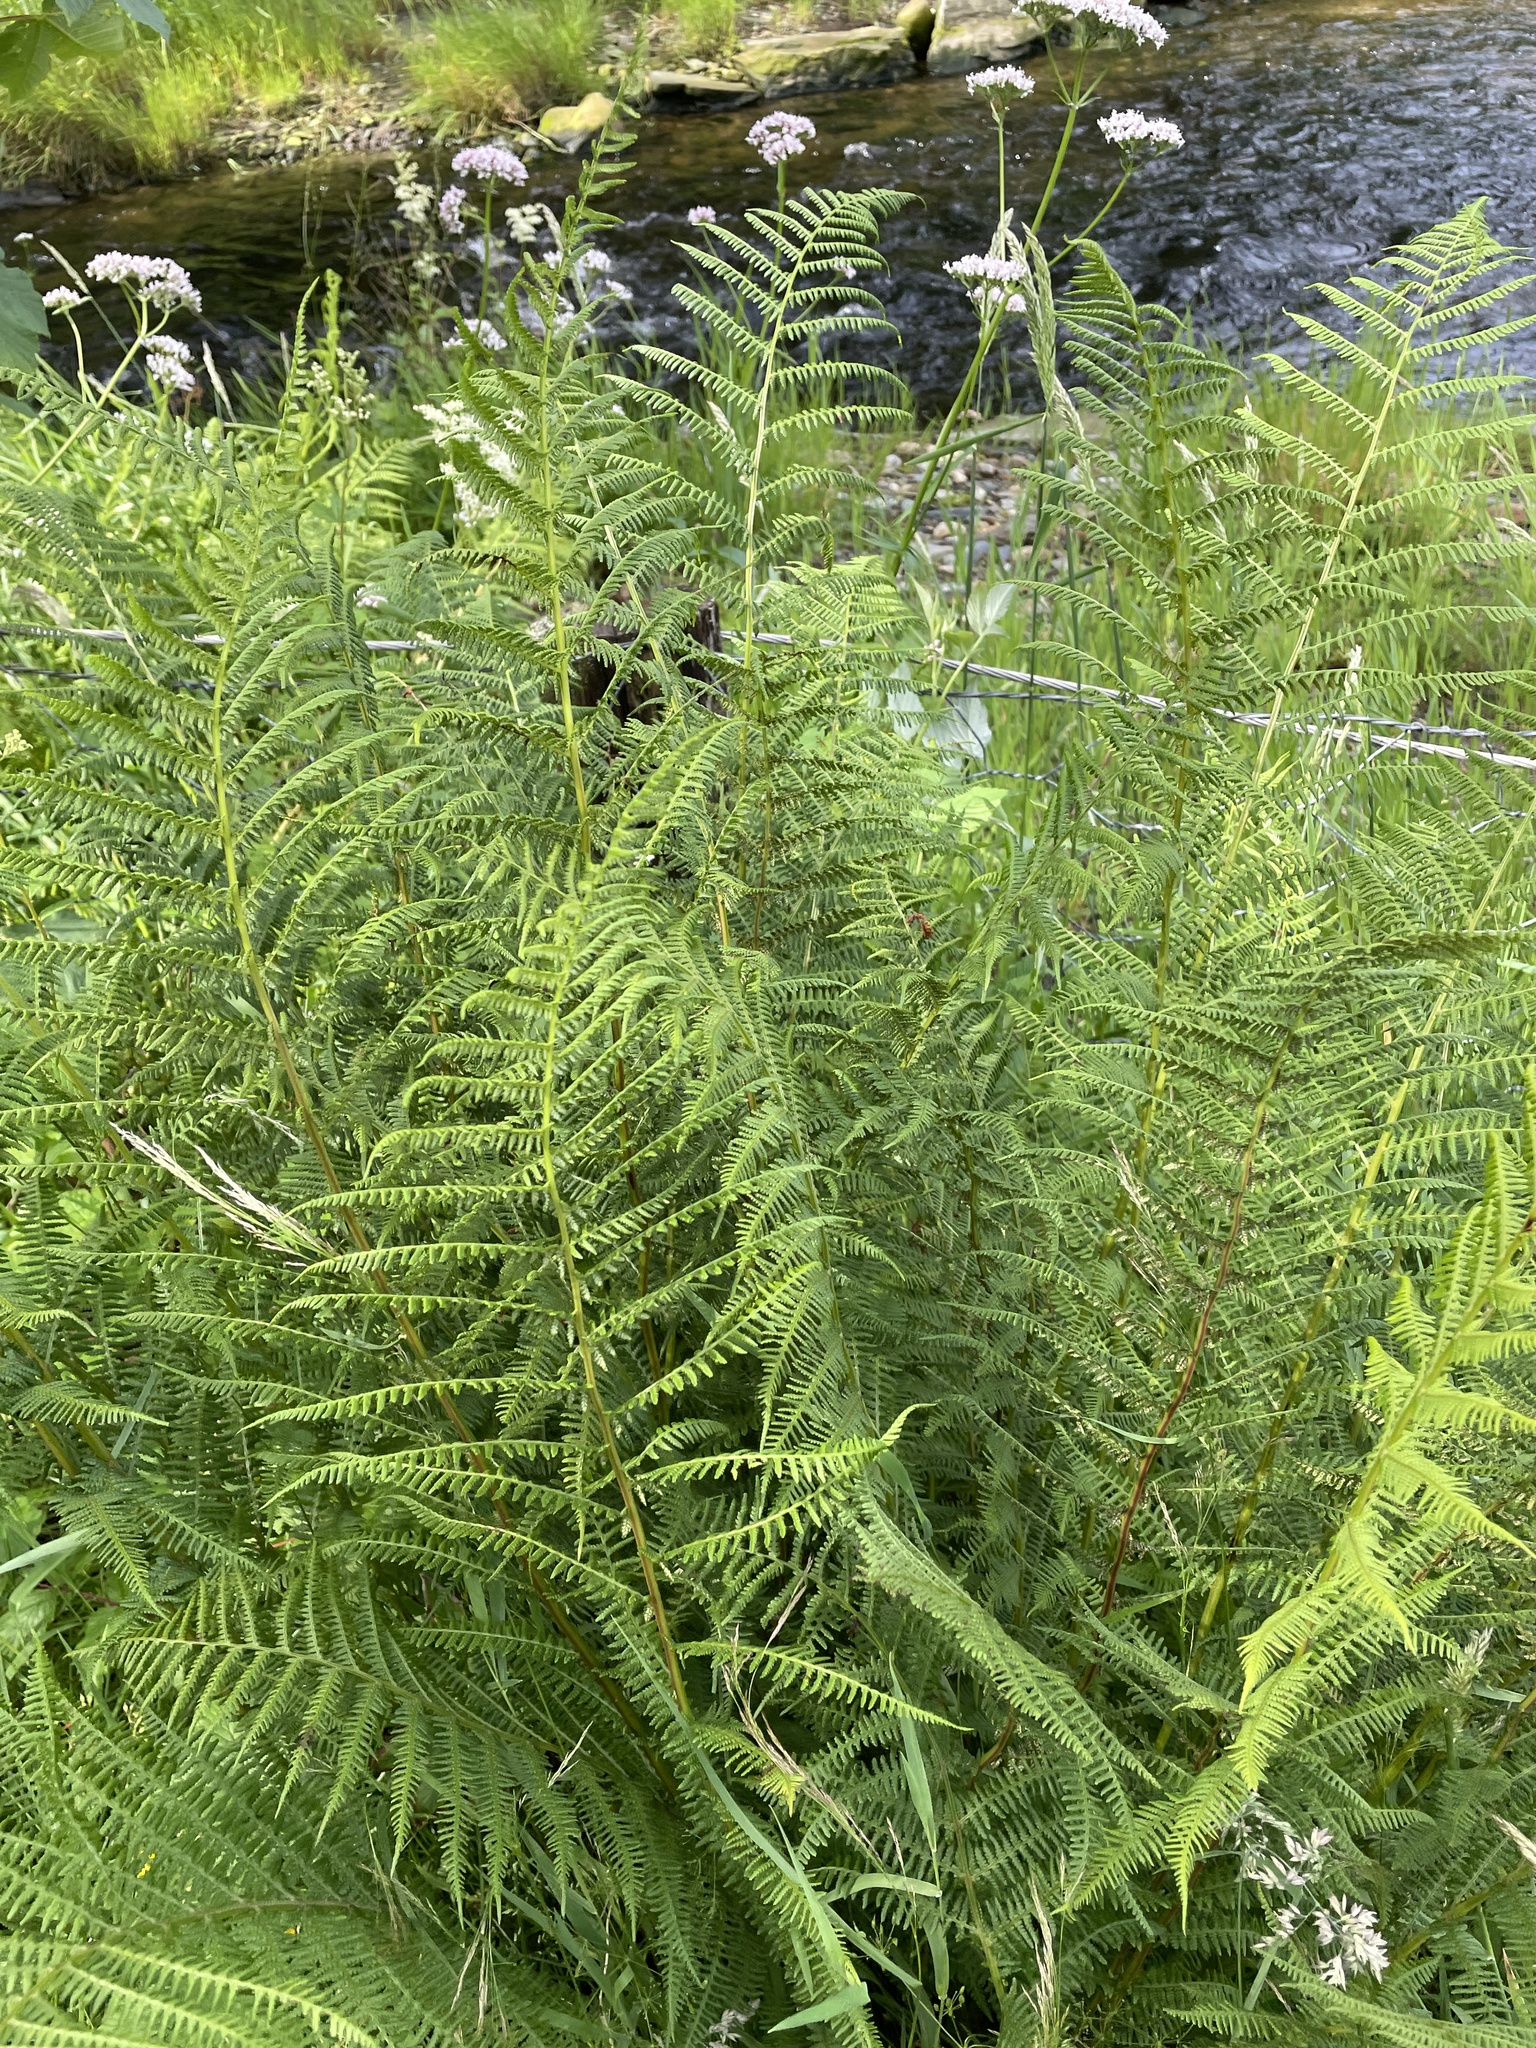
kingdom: Plantae
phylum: Tracheophyta
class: Polypodiopsida
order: Polypodiales
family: Athyriaceae
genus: Athyrium
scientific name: Athyrium filix-femina
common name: Lady fern
